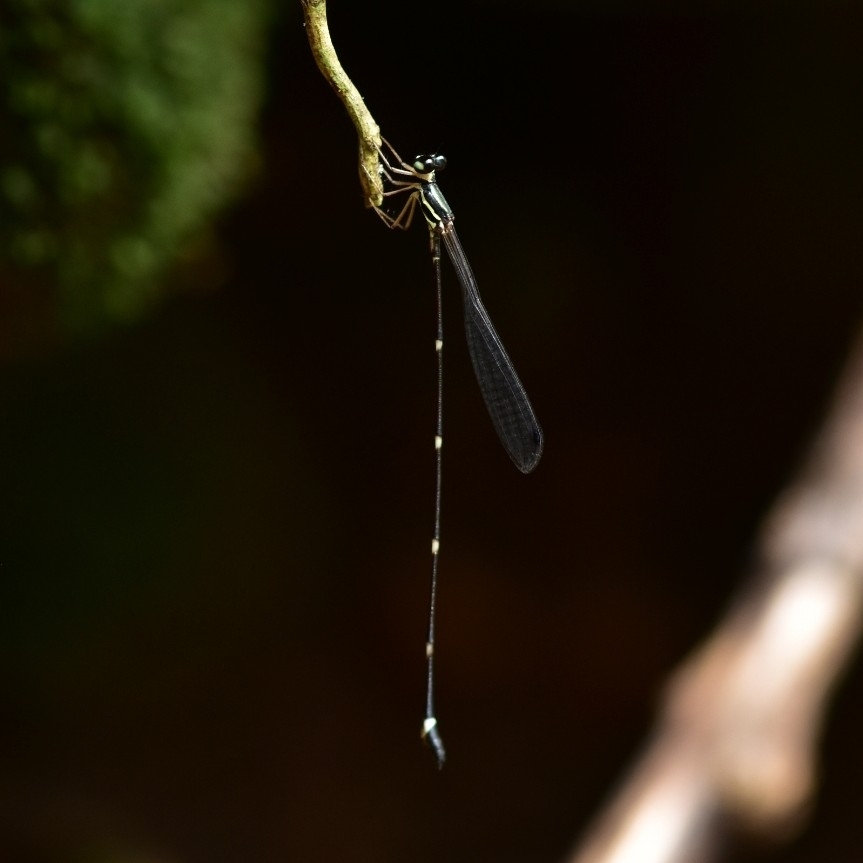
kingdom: Animalia
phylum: Arthropoda
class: Insecta
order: Odonata
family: Platystictidae
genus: Protosticta
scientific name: Protosticta gravelyi
